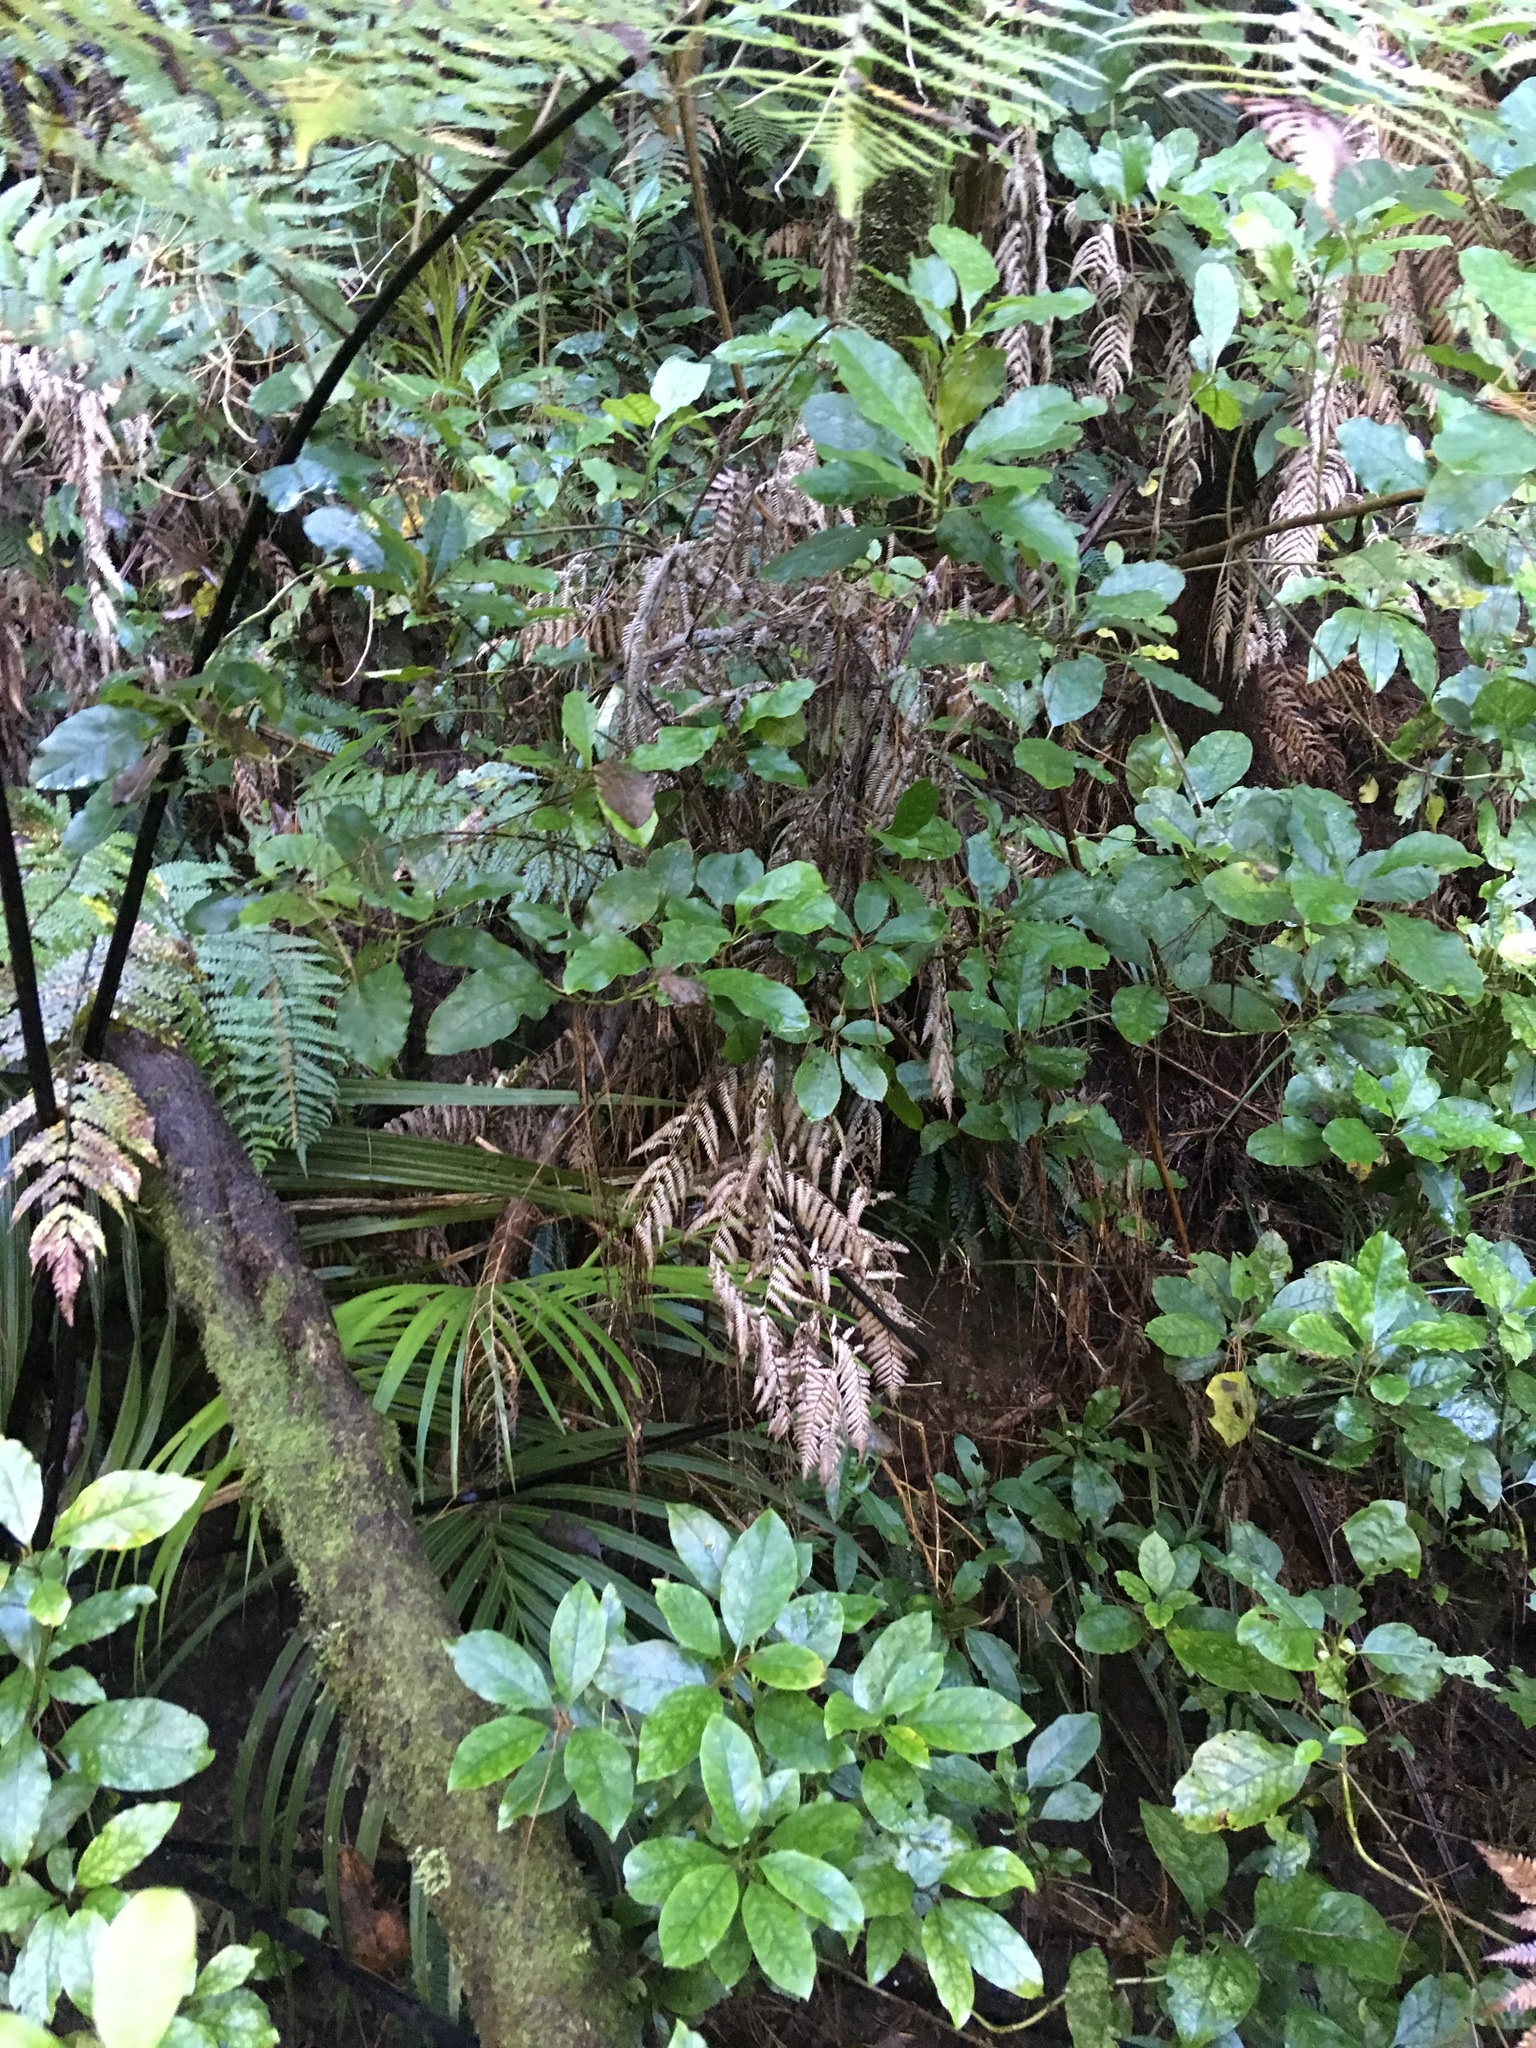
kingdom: Plantae
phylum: Tracheophyta
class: Polypodiopsida
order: Cyatheales
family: Cyatheaceae
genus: Sphaeropteris
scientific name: Sphaeropteris medullaris
